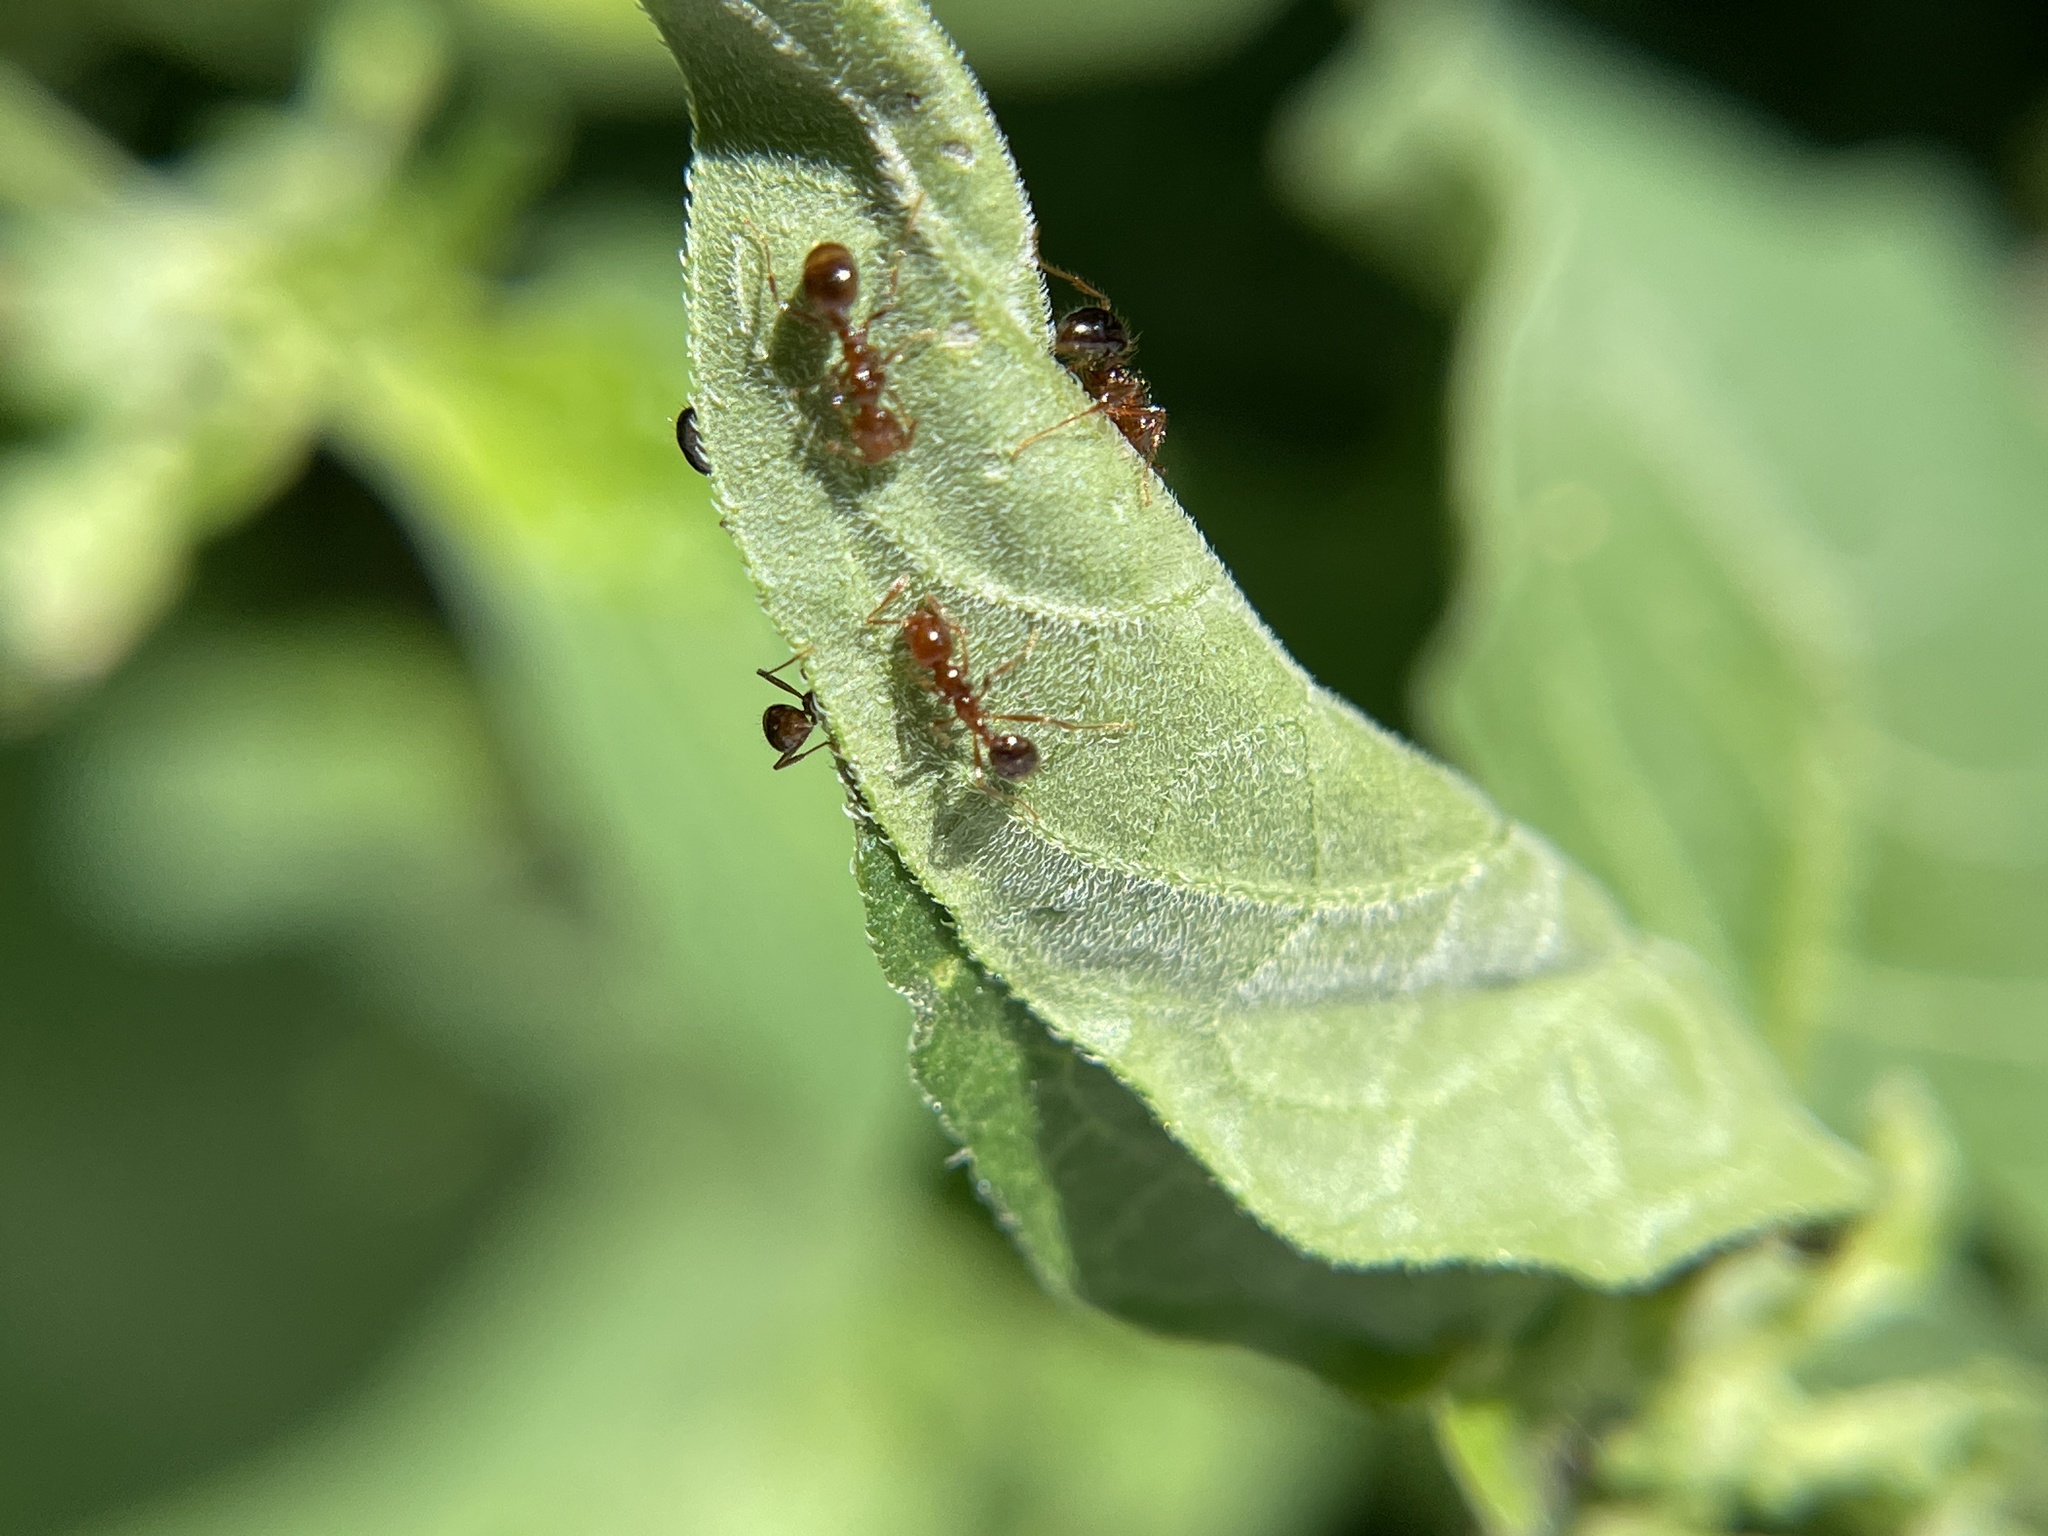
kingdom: Animalia
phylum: Arthropoda
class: Insecta
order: Hymenoptera
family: Formicidae
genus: Solenopsis
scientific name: Solenopsis invicta
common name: Red imported fire ant
